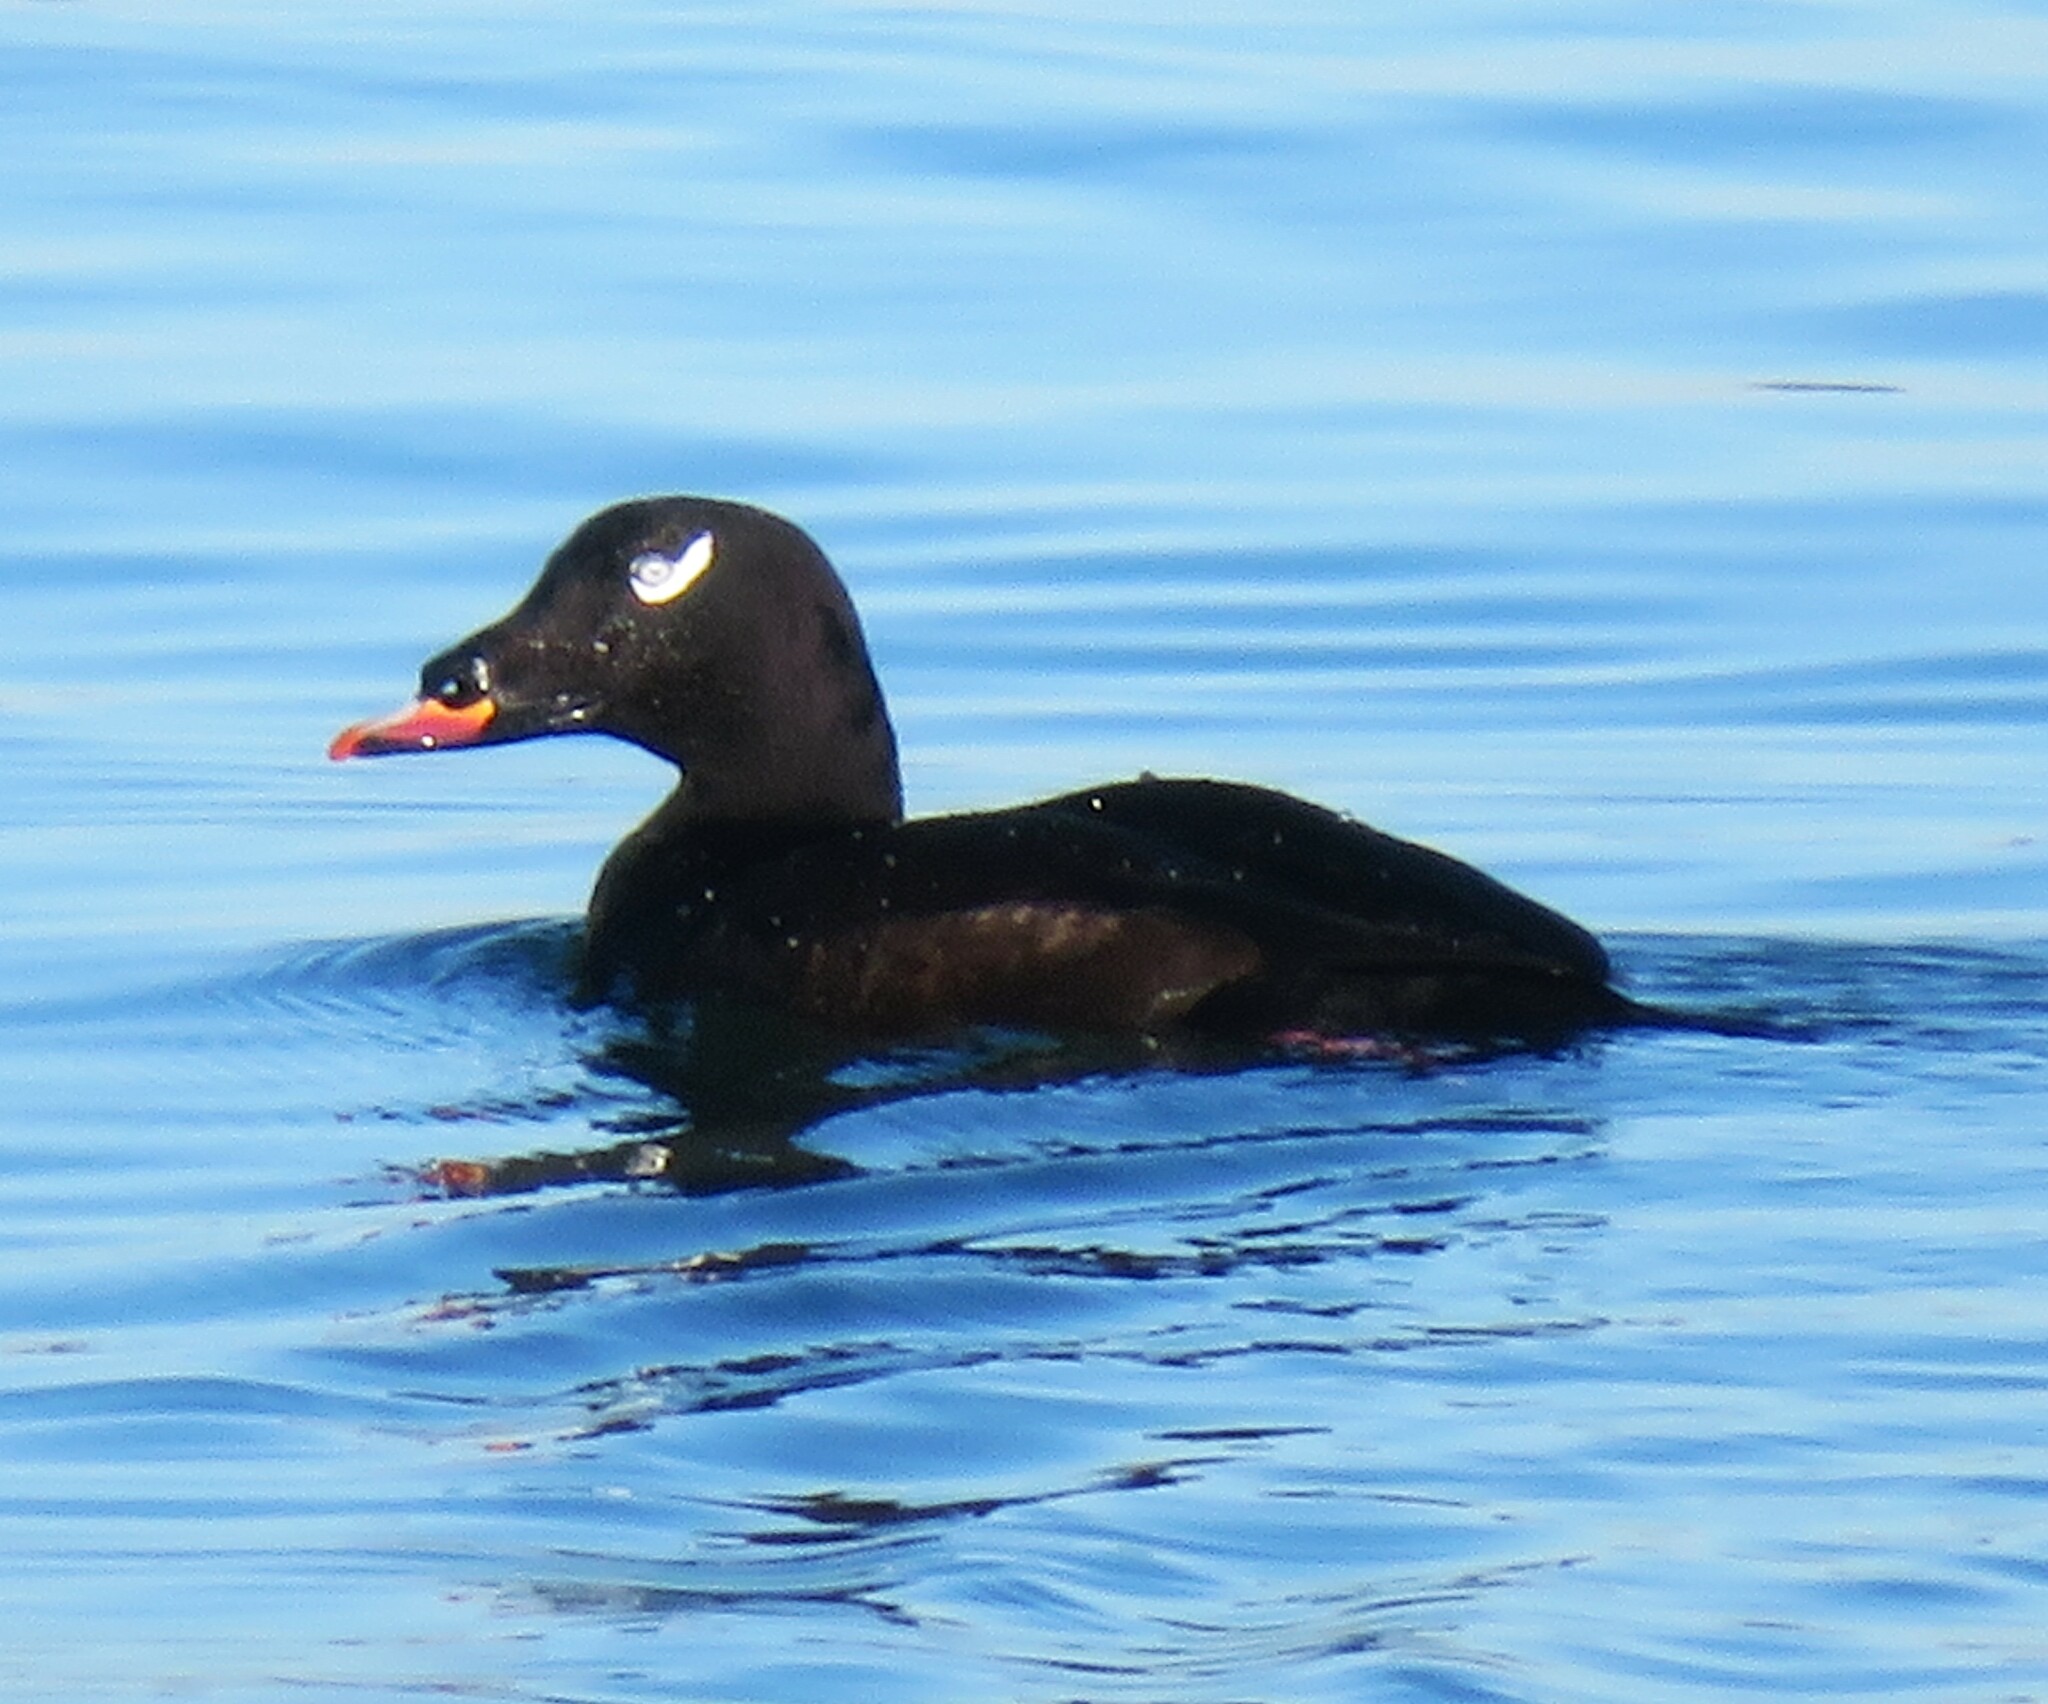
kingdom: Animalia
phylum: Chordata
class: Aves
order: Anseriformes
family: Anatidae
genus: Melanitta
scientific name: Melanitta deglandi
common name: White-winged scoter
